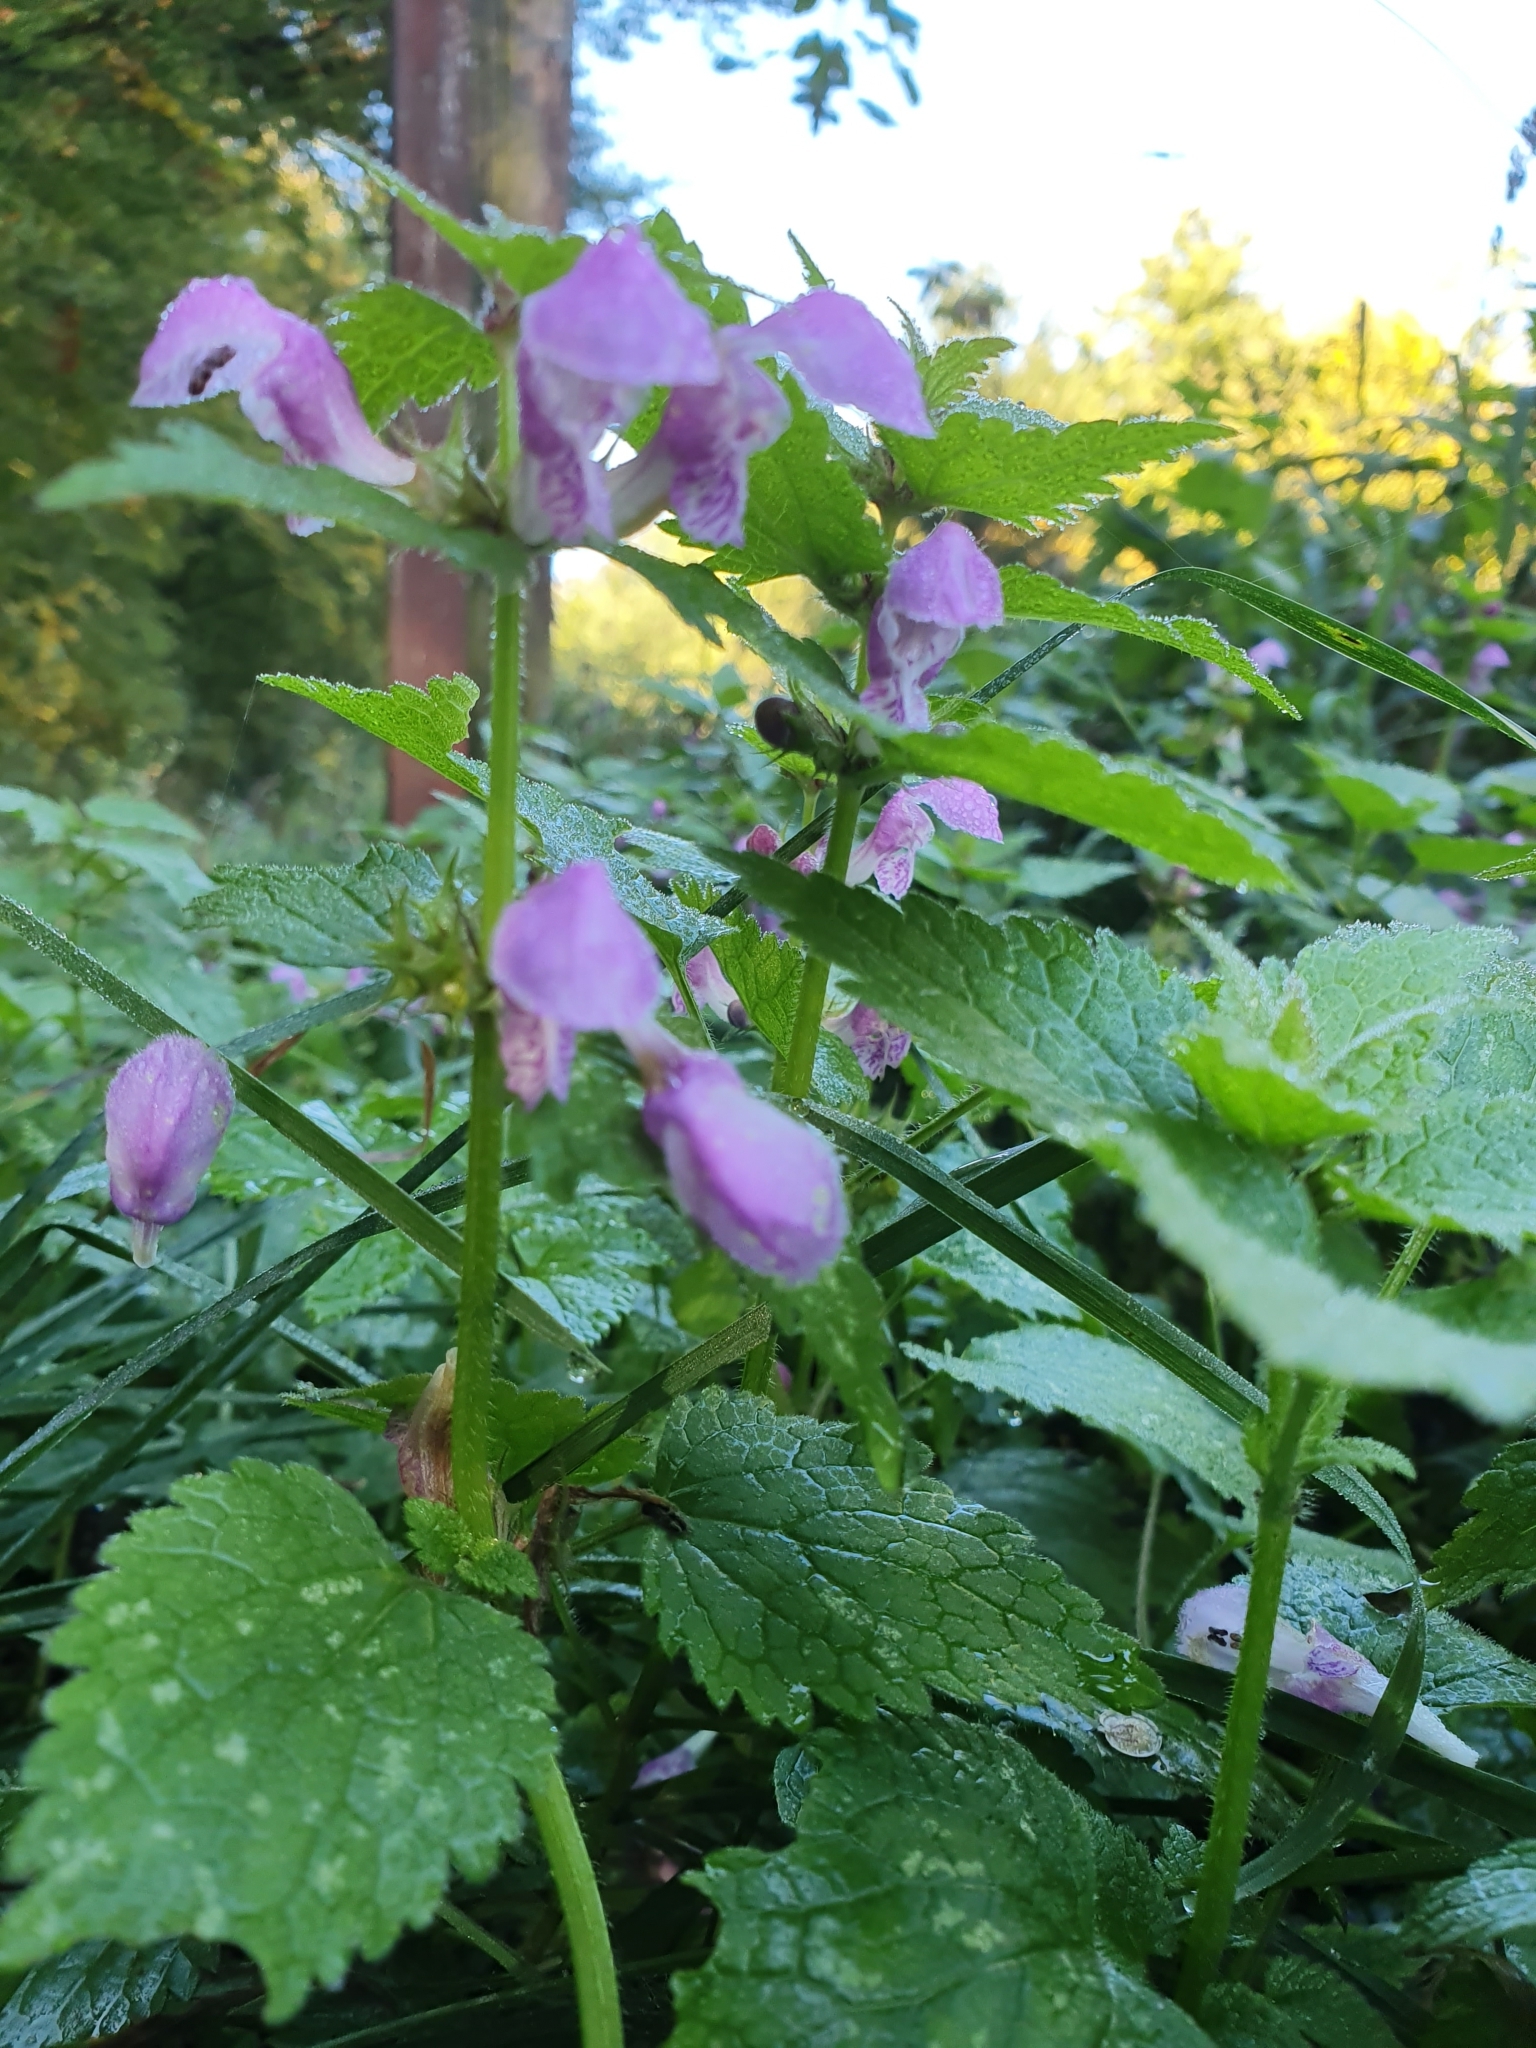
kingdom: Plantae
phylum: Tracheophyta
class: Magnoliopsida
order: Lamiales
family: Lamiaceae
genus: Lamium
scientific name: Lamium maculatum
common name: Spotted dead-nettle
